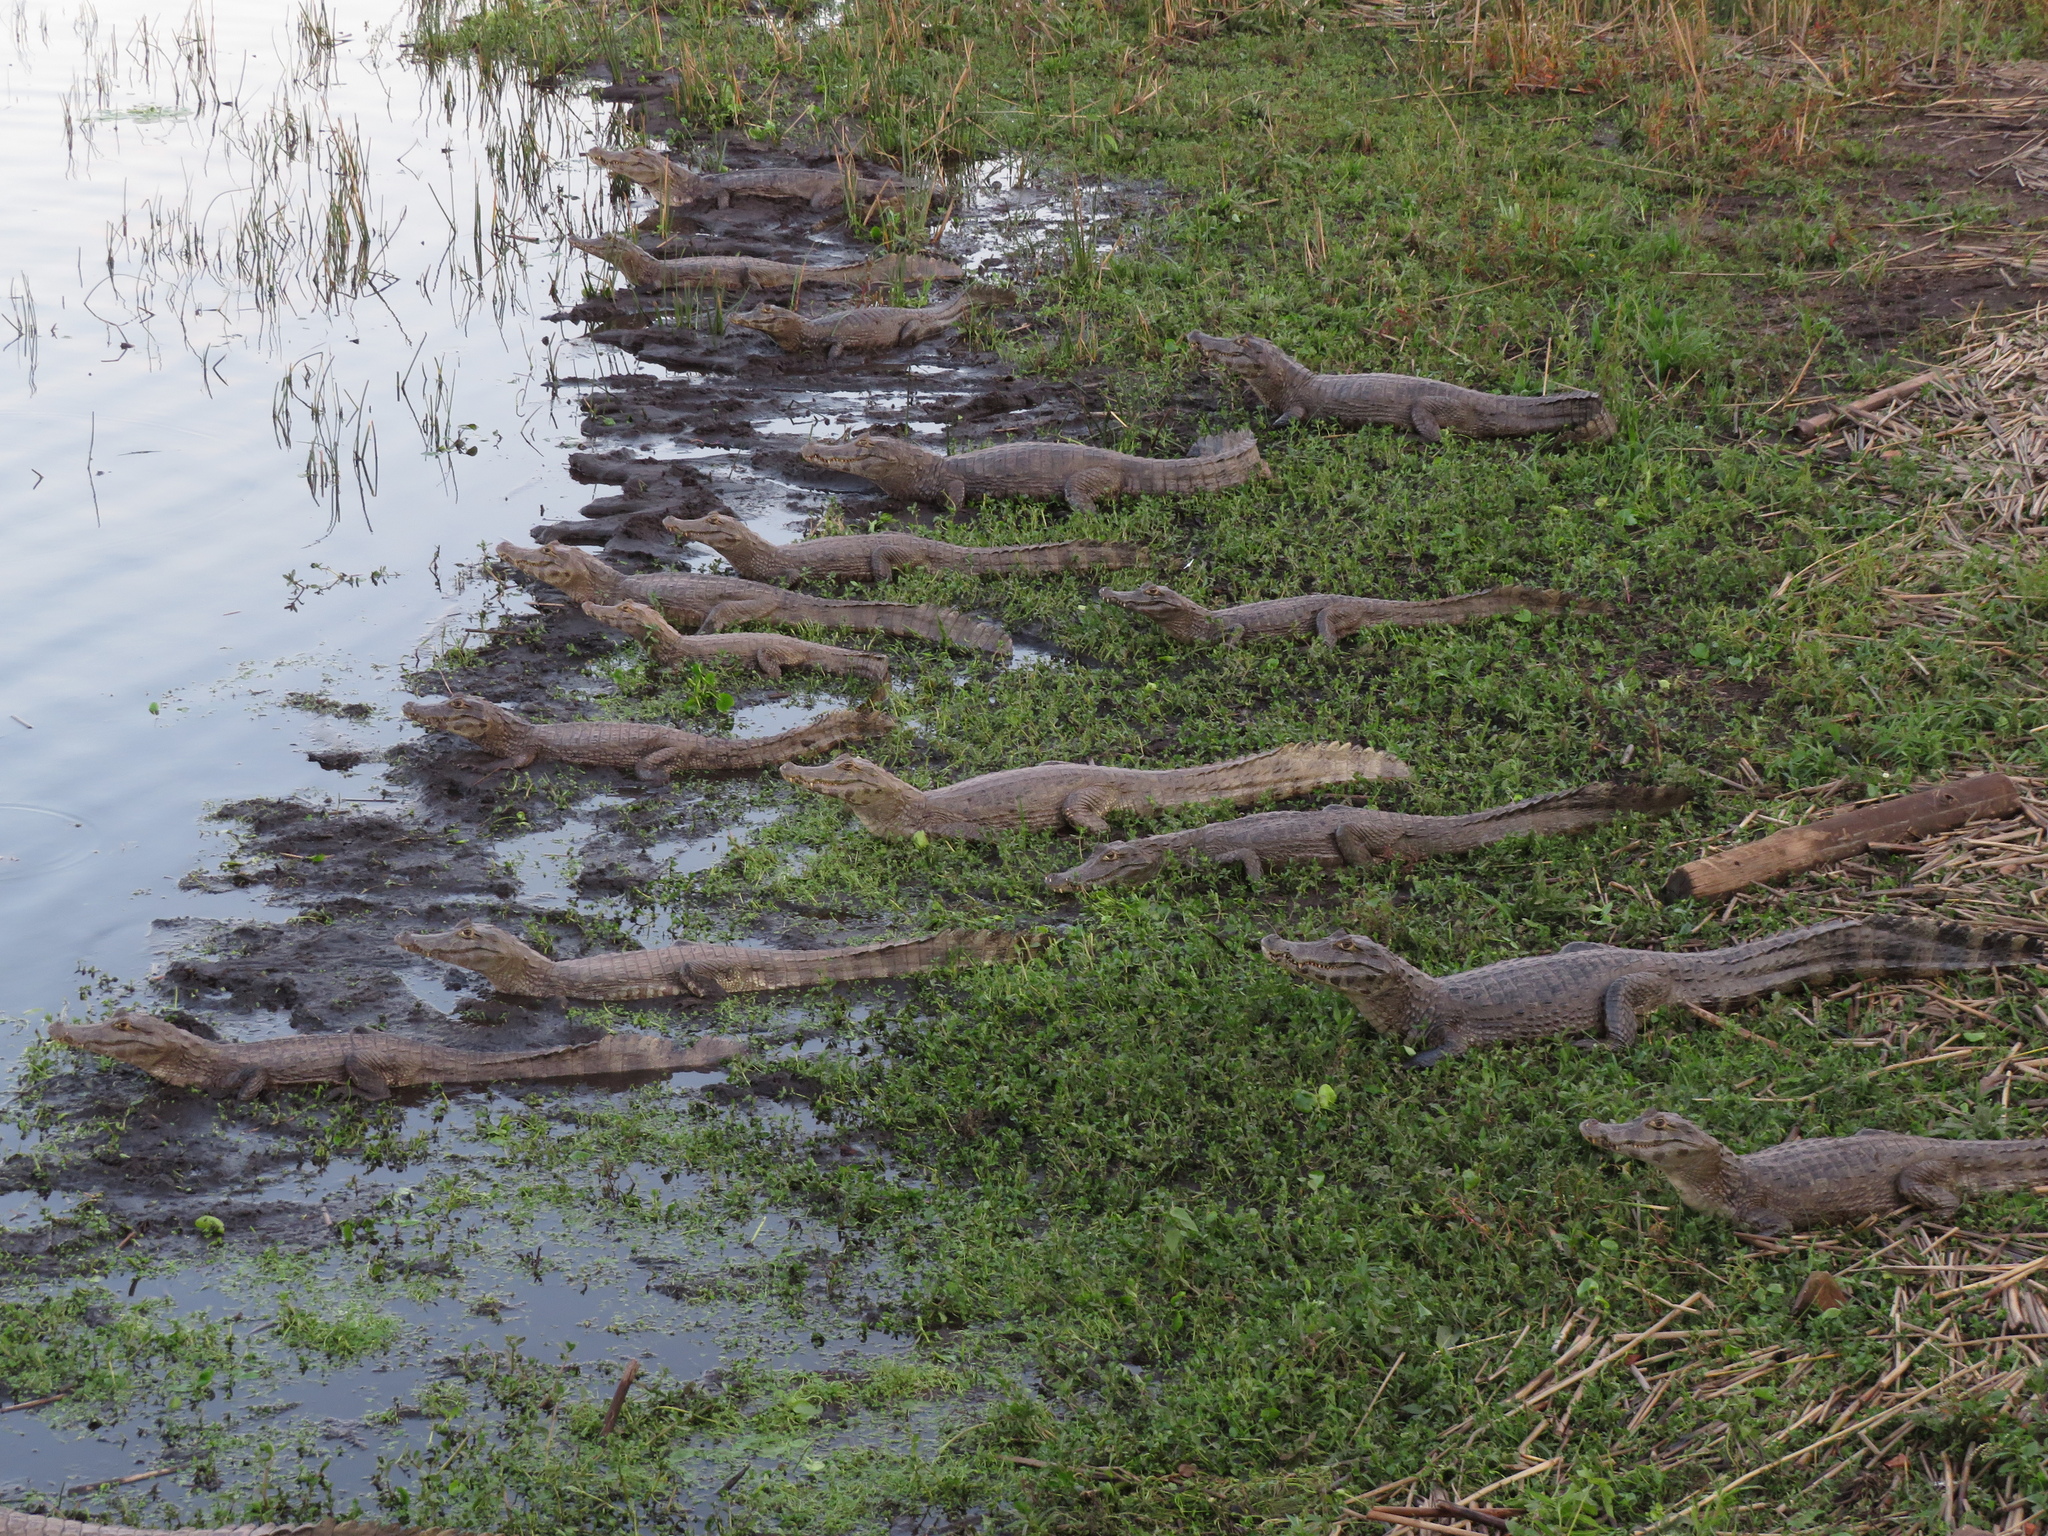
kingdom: Animalia
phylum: Chordata
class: Crocodylia
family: Alligatoridae
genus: Caiman
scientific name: Caiman yacare
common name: Yacare caiman
